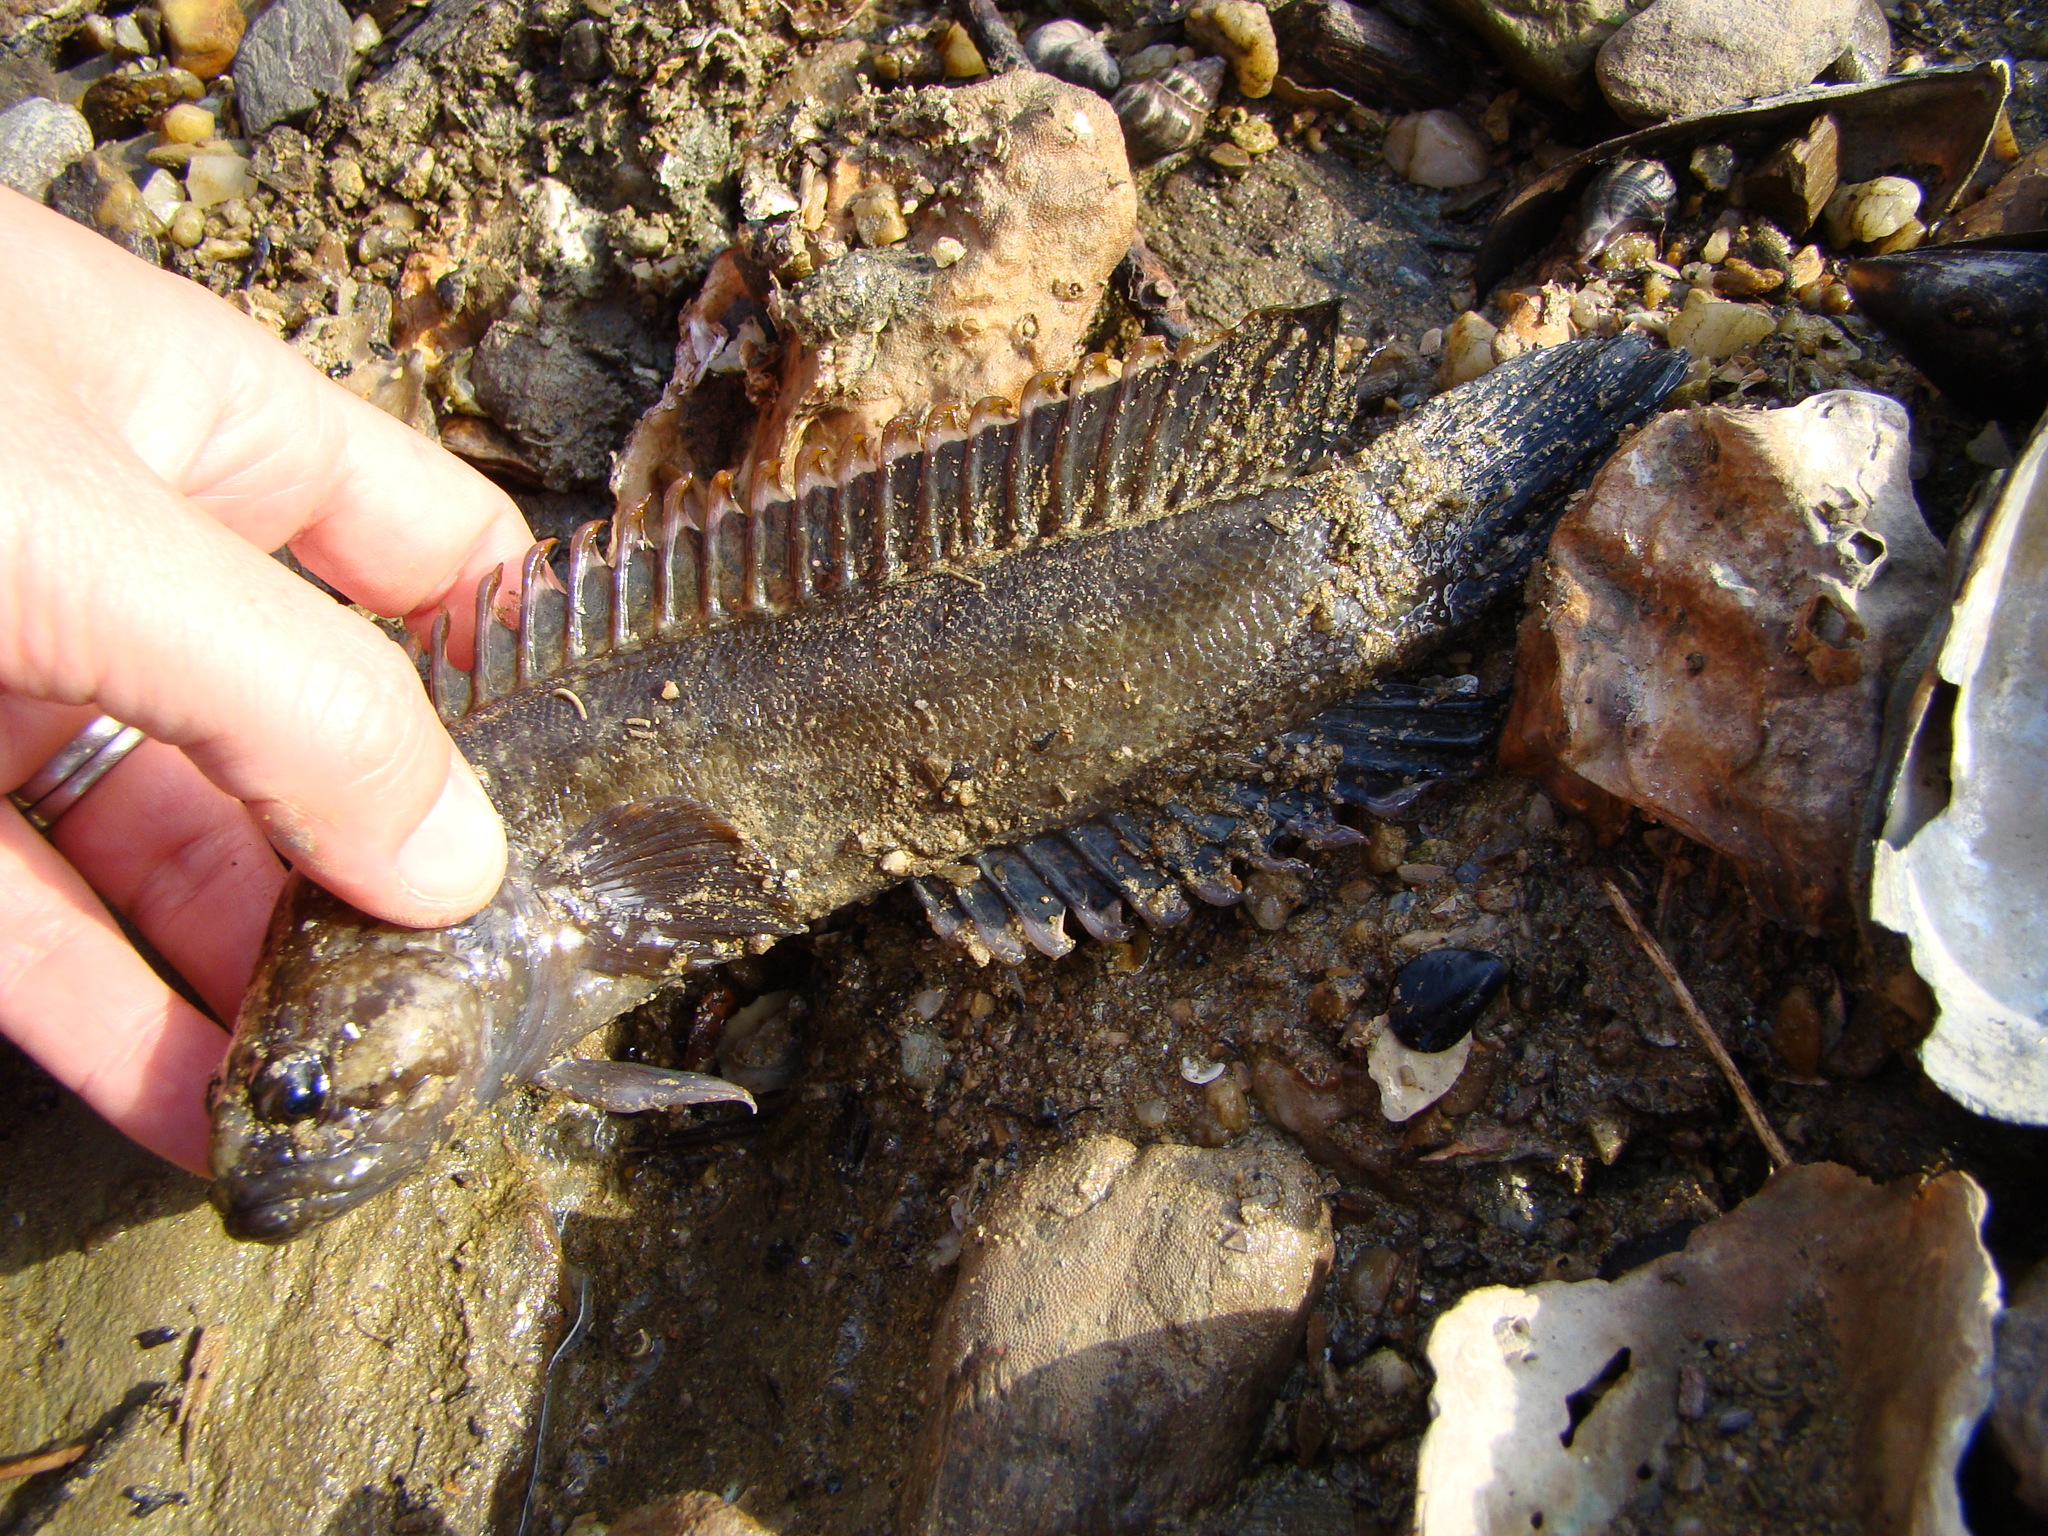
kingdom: Animalia
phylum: Chordata
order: Perciformes
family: Plesiopidae
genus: Acanthoclinus
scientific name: Acanthoclinus fuscus
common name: Olive rockfish
